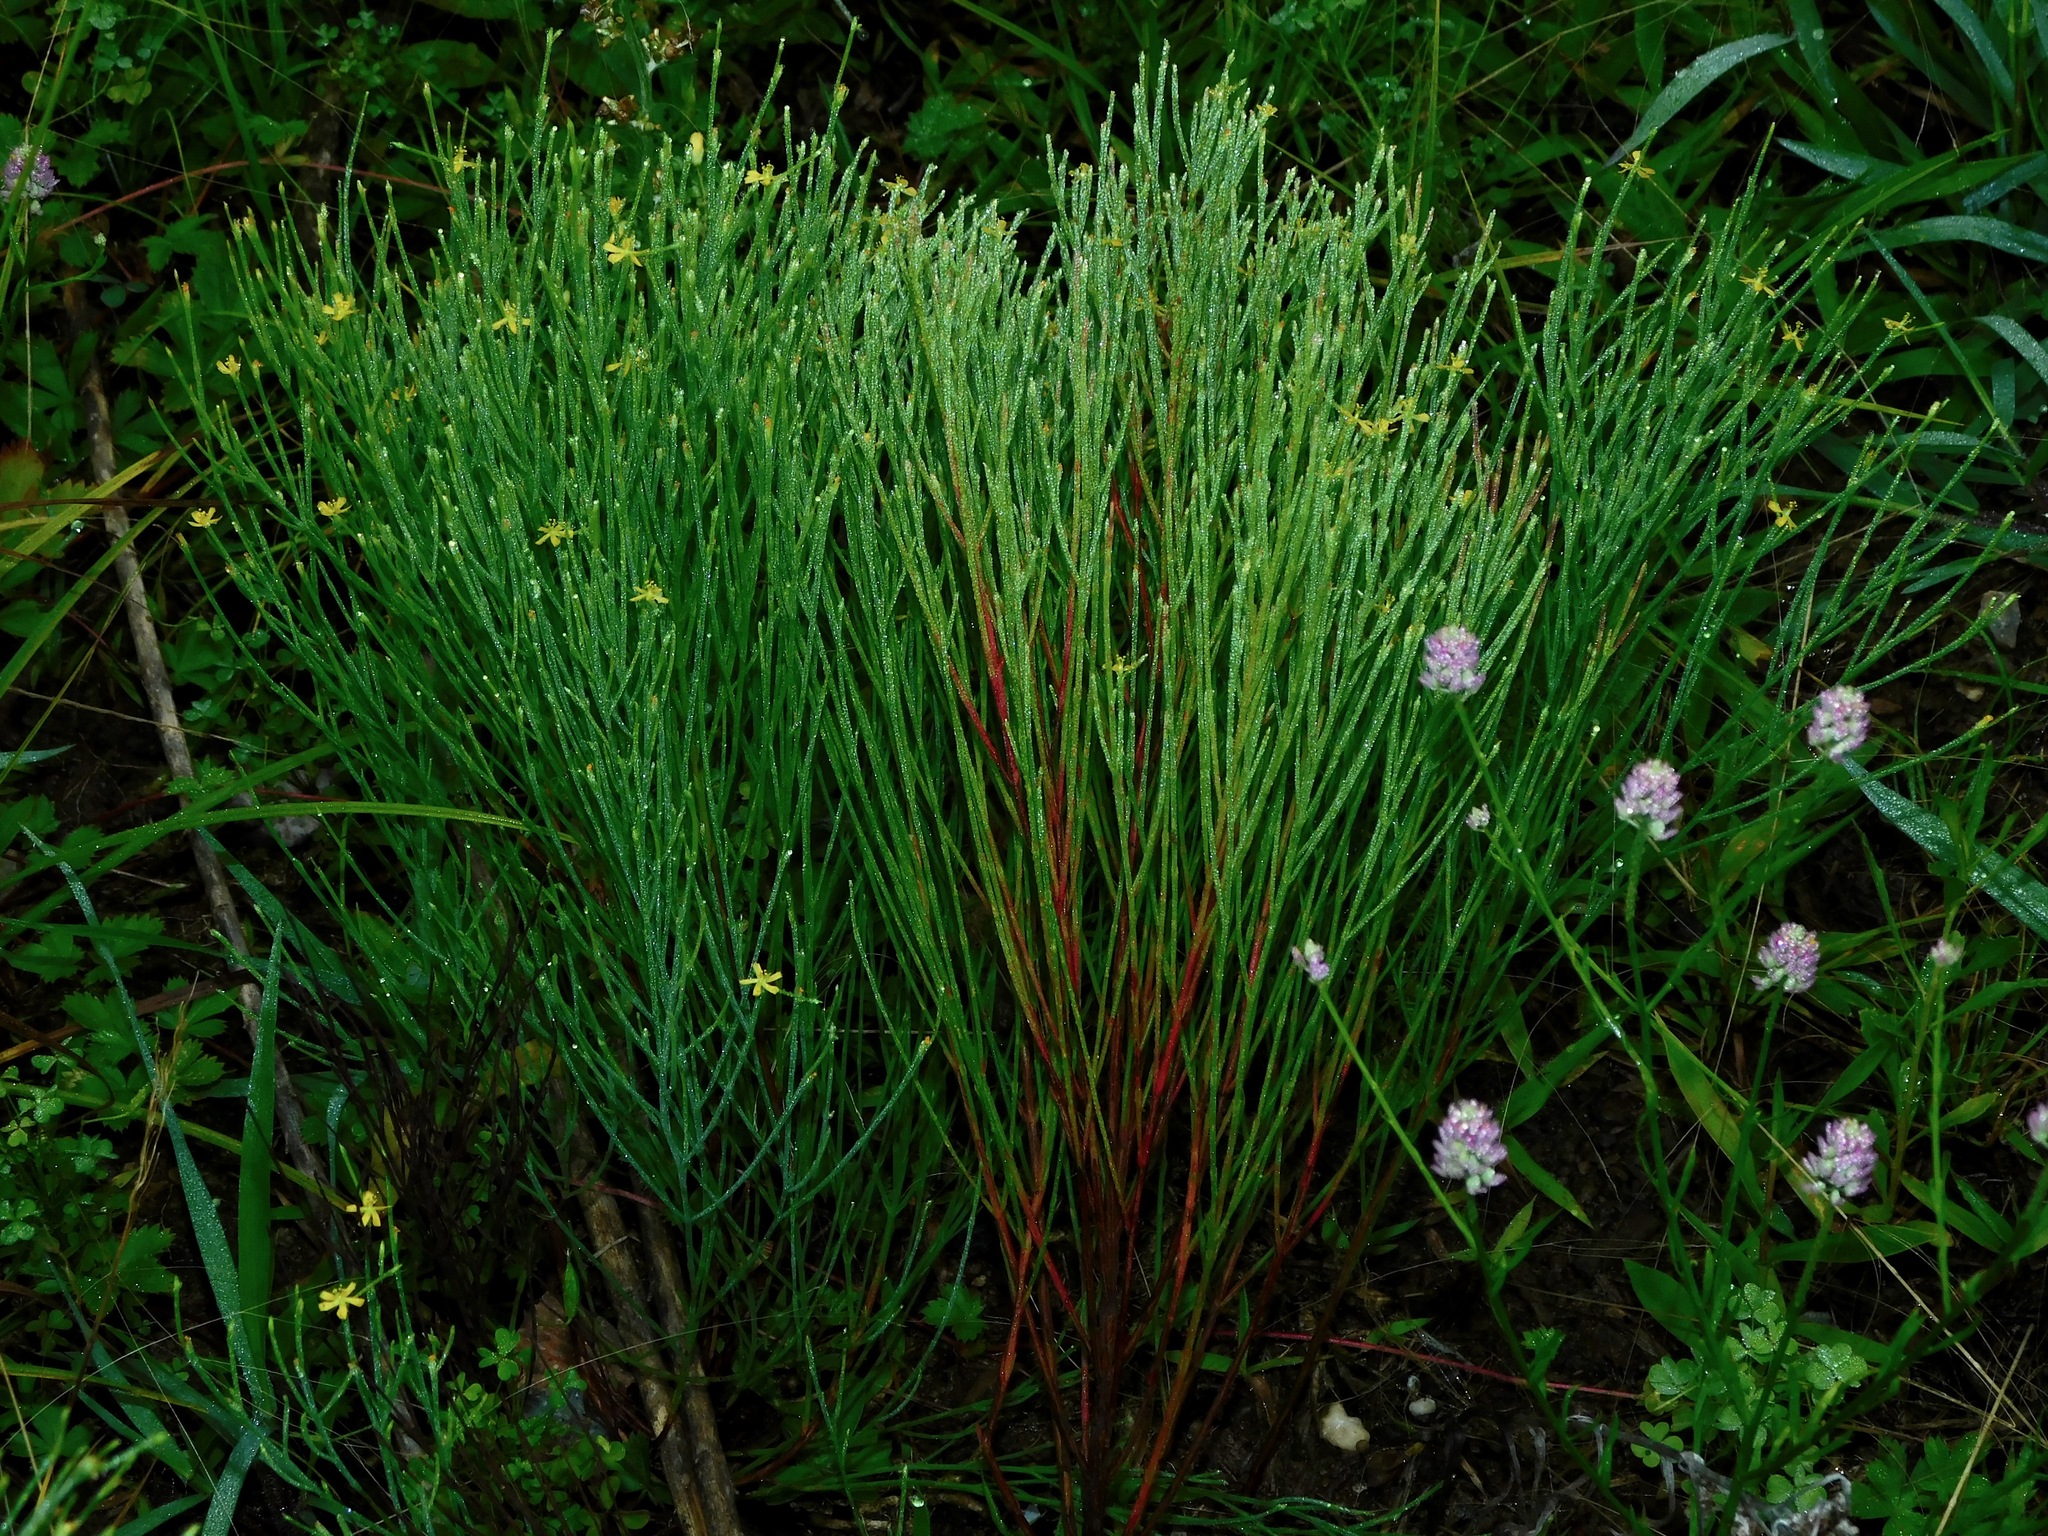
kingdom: Plantae
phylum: Tracheophyta
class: Magnoliopsida
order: Malpighiales
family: Hypericaceae
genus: Hypericum
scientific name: Hypericum gentianoides
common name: Gentian-leaved st. john's-wort
